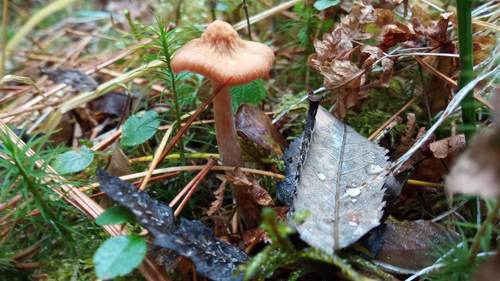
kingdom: Fungi
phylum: Basidiomycota
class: Agaricomycetes
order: Agaricales
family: Inocybaceae
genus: Inocybe
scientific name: Inocybe
